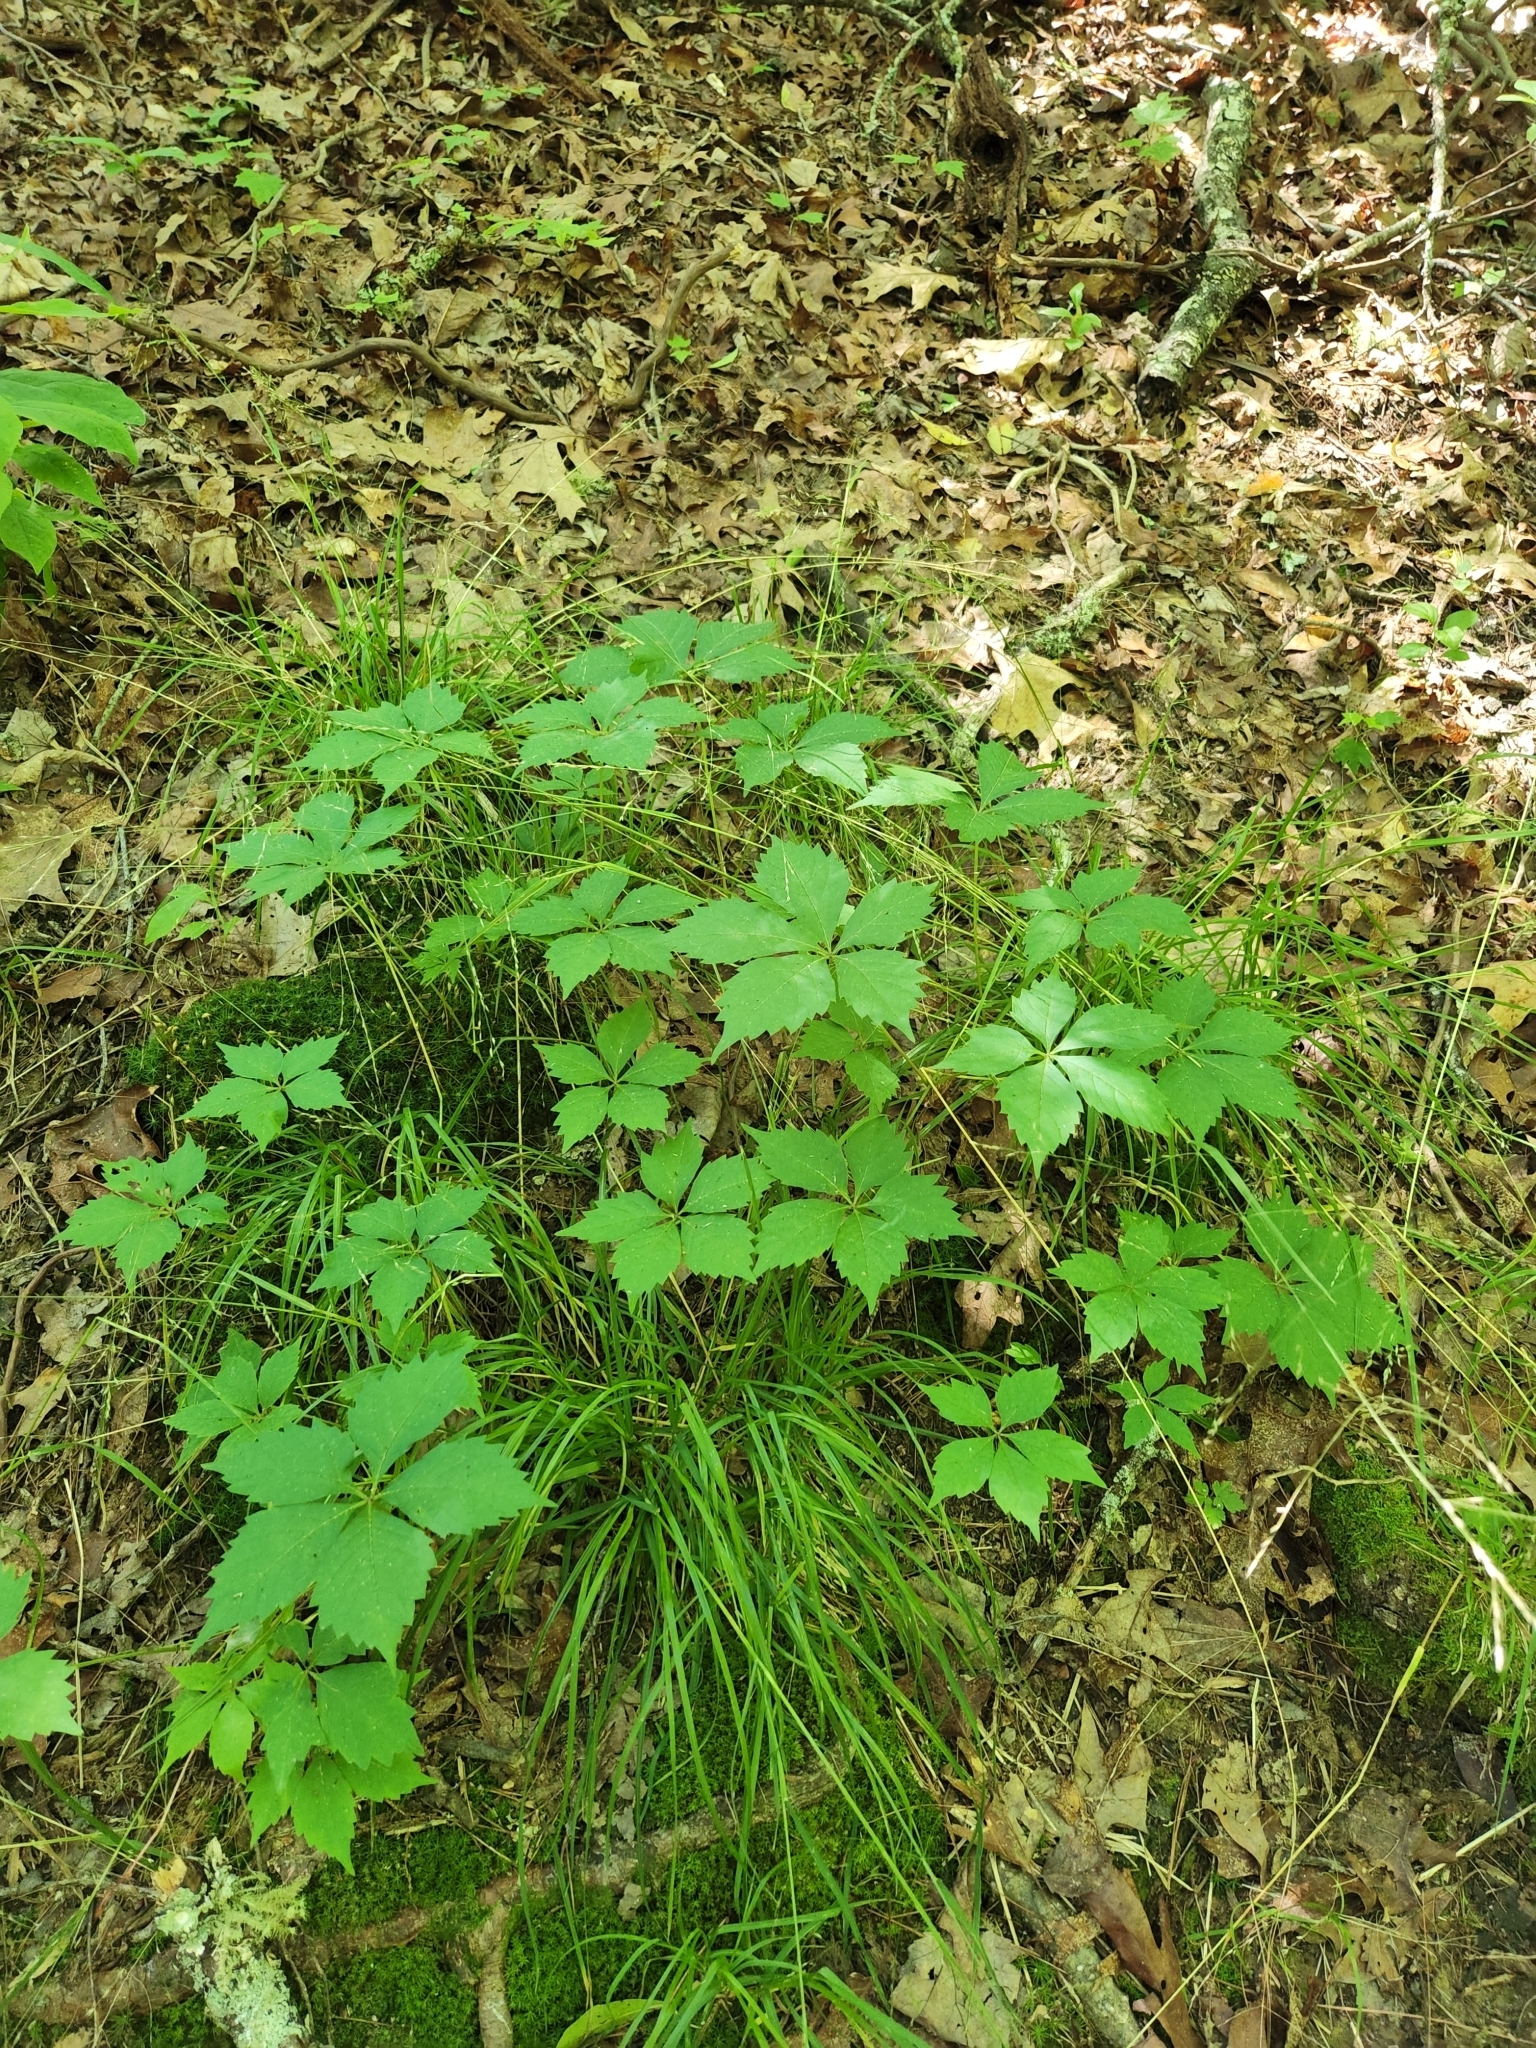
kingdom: Plantae
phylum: Tracheophyta
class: Magnoliopsida
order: Vitales
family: Vitaceae
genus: Parthenocissus
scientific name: Parthenocissus quinquefolia
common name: Virginia-creeper
